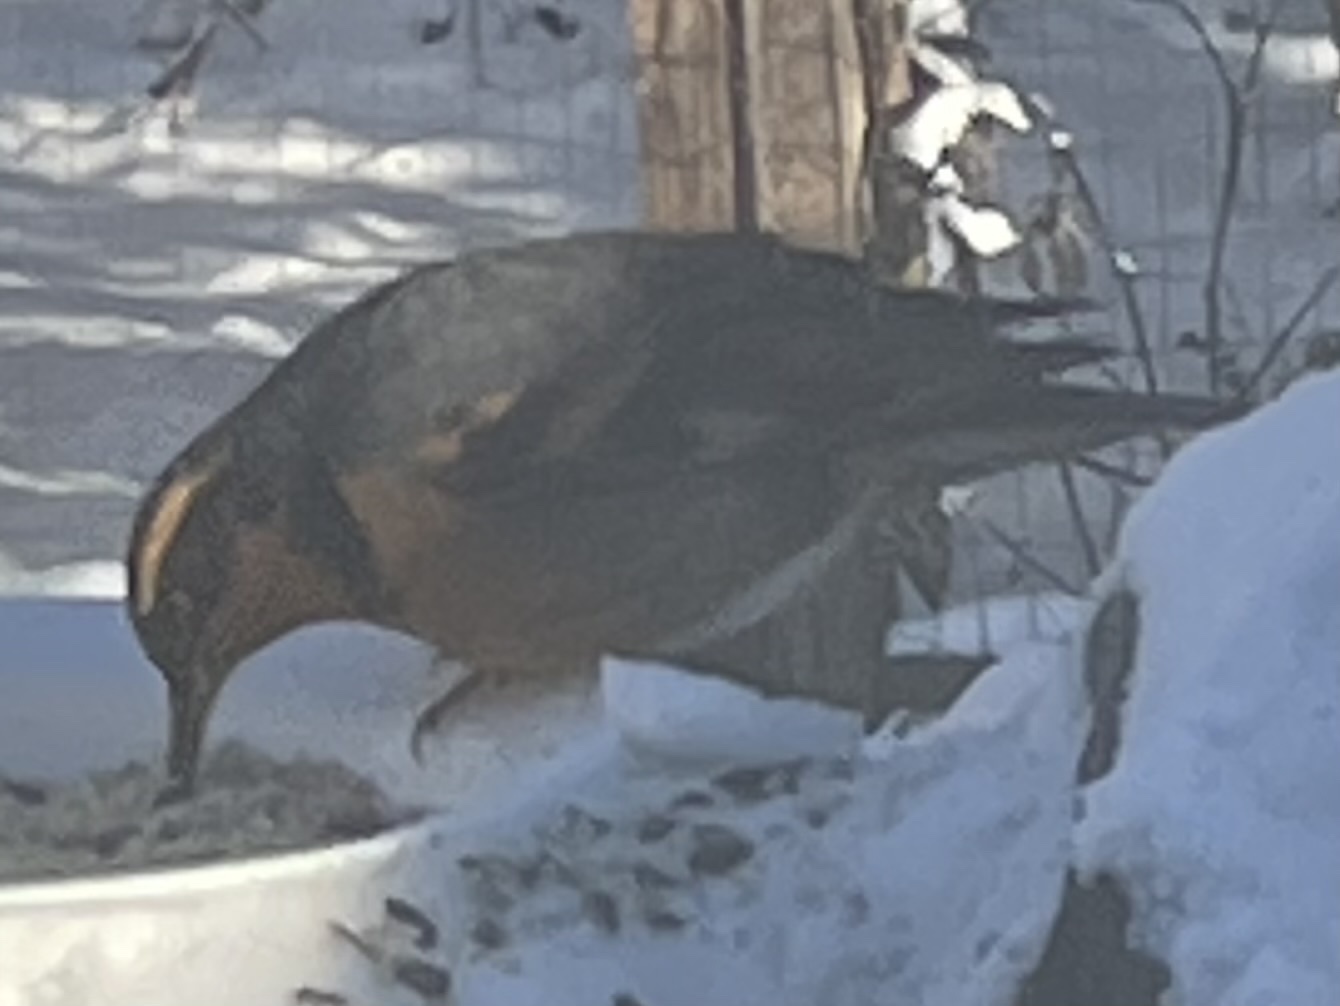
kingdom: Animalia
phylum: Chordata
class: Aves
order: Passeriformes
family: Turdidae
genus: Ixoreus
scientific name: Ixoreus naevius
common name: Varied thrush
